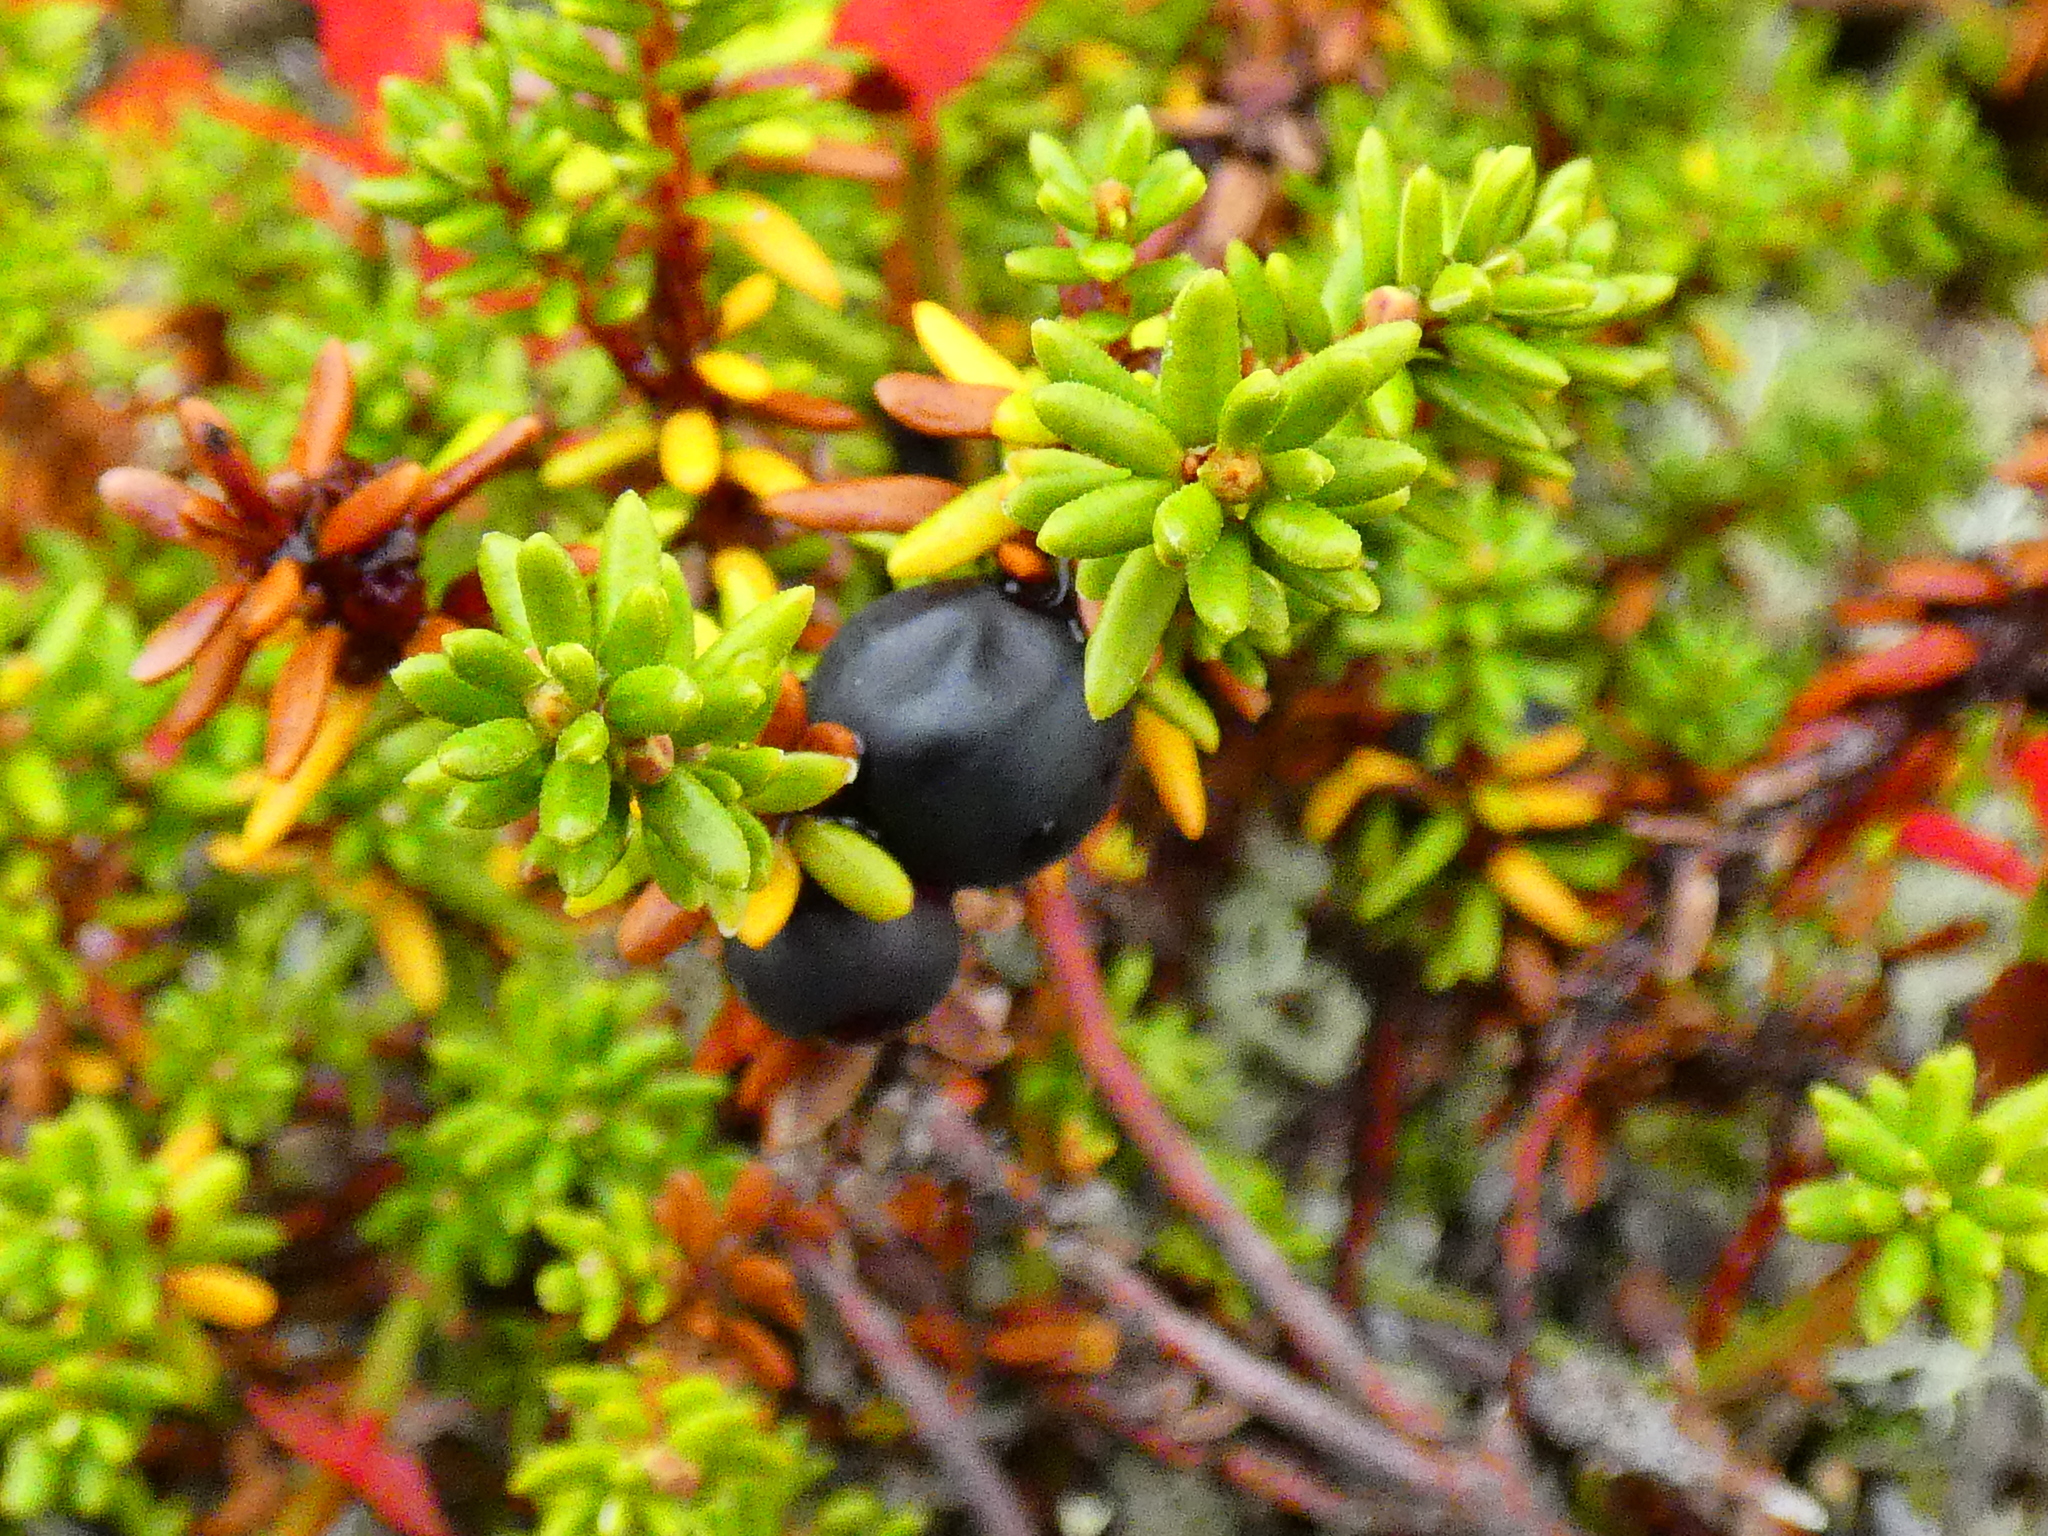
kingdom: Plantae
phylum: Tracheophyta
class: Magnoliopsida
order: Ericales
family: Ericaceae
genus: Empetrum
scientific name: Empetrum nigrum
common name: Black crowberry
